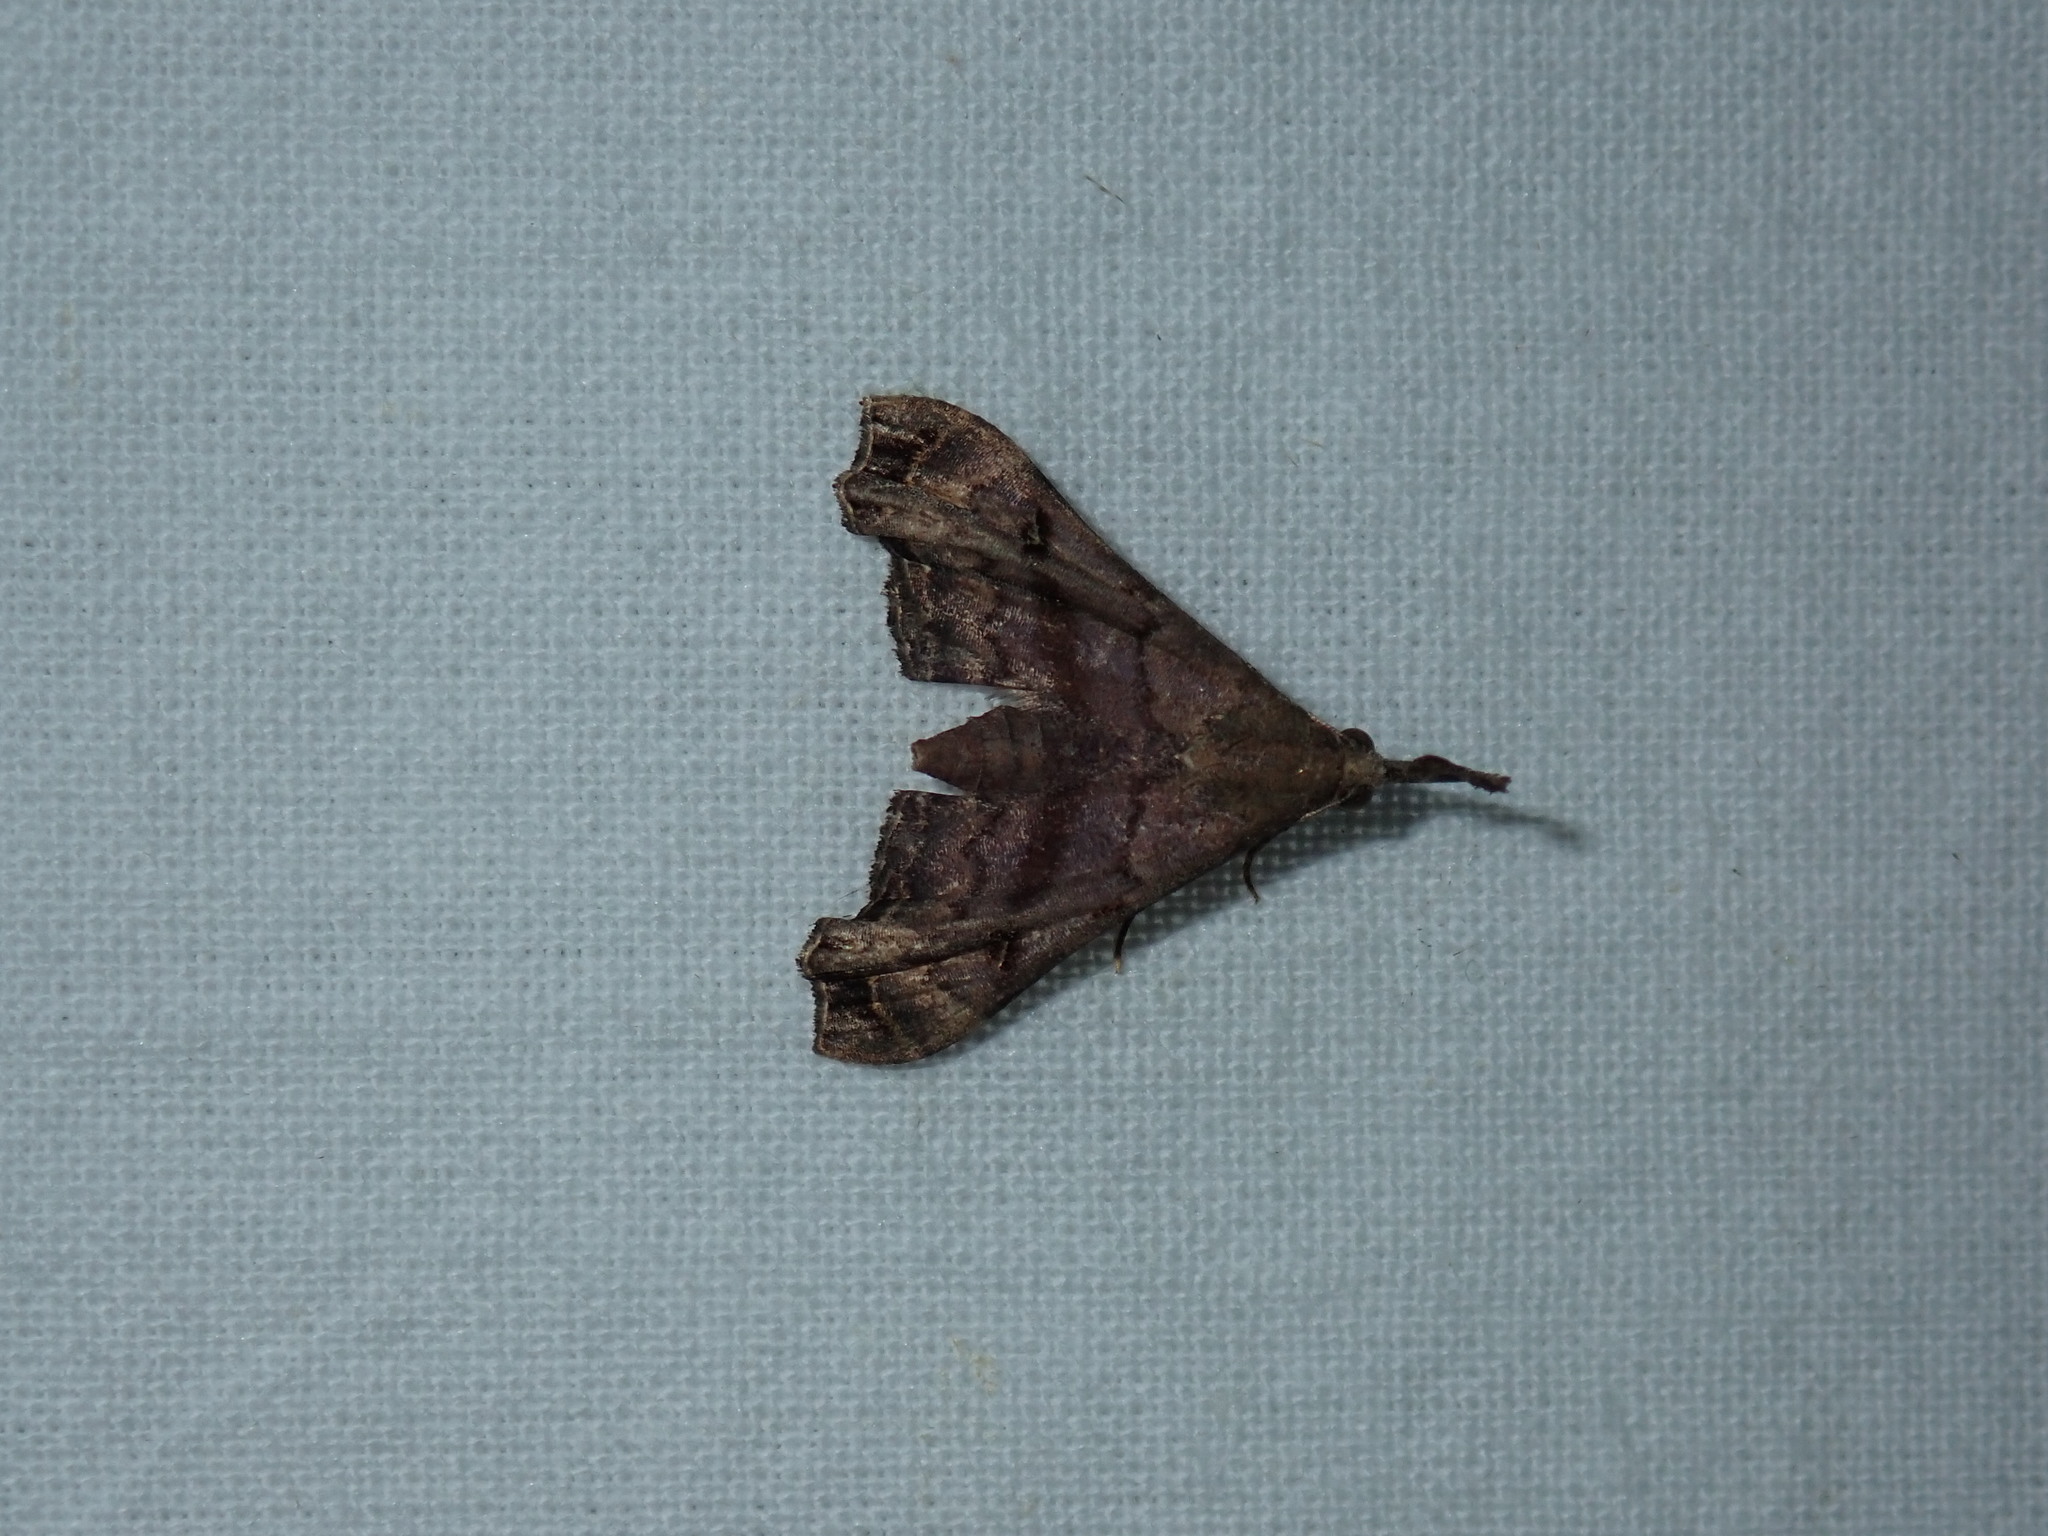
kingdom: Animalia
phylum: Arthropoda
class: Insecta
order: Lepidoptera
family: Erebidae
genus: Palthis
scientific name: Palthis asopialis
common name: Faint-spotted palthis moth
